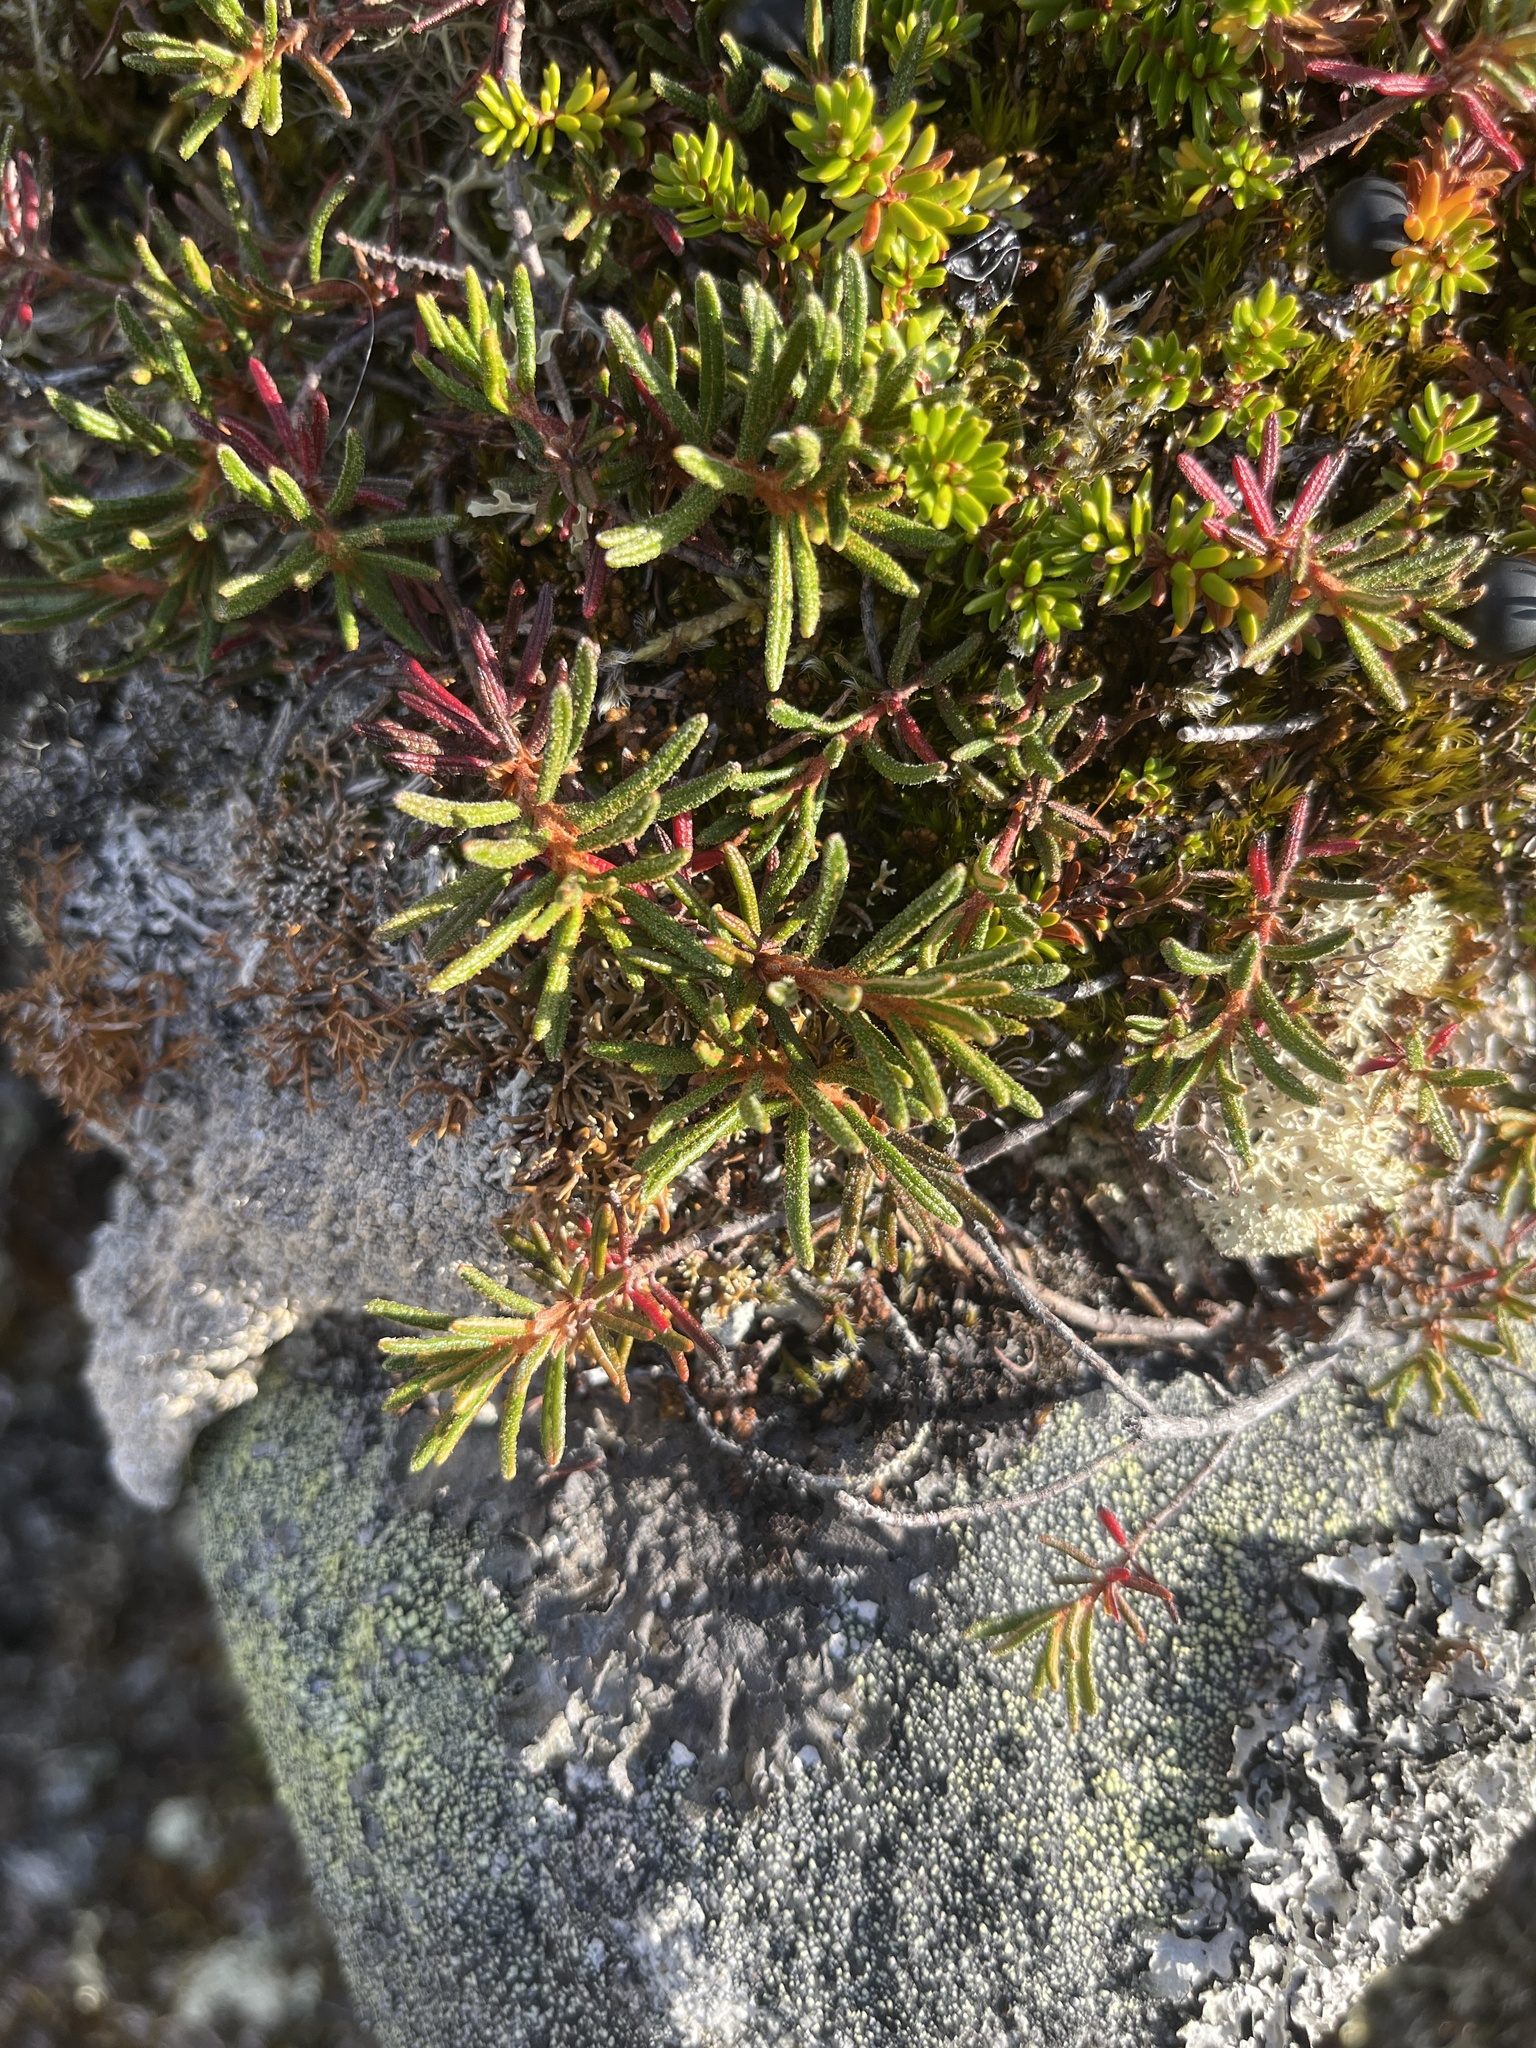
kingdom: Plantae
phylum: Tracheophyta
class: Magnoliopsida
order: Ericales
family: Ericaceae
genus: Rhododendron
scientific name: Rhododendron tomentosum
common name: Marsh labrador tea
